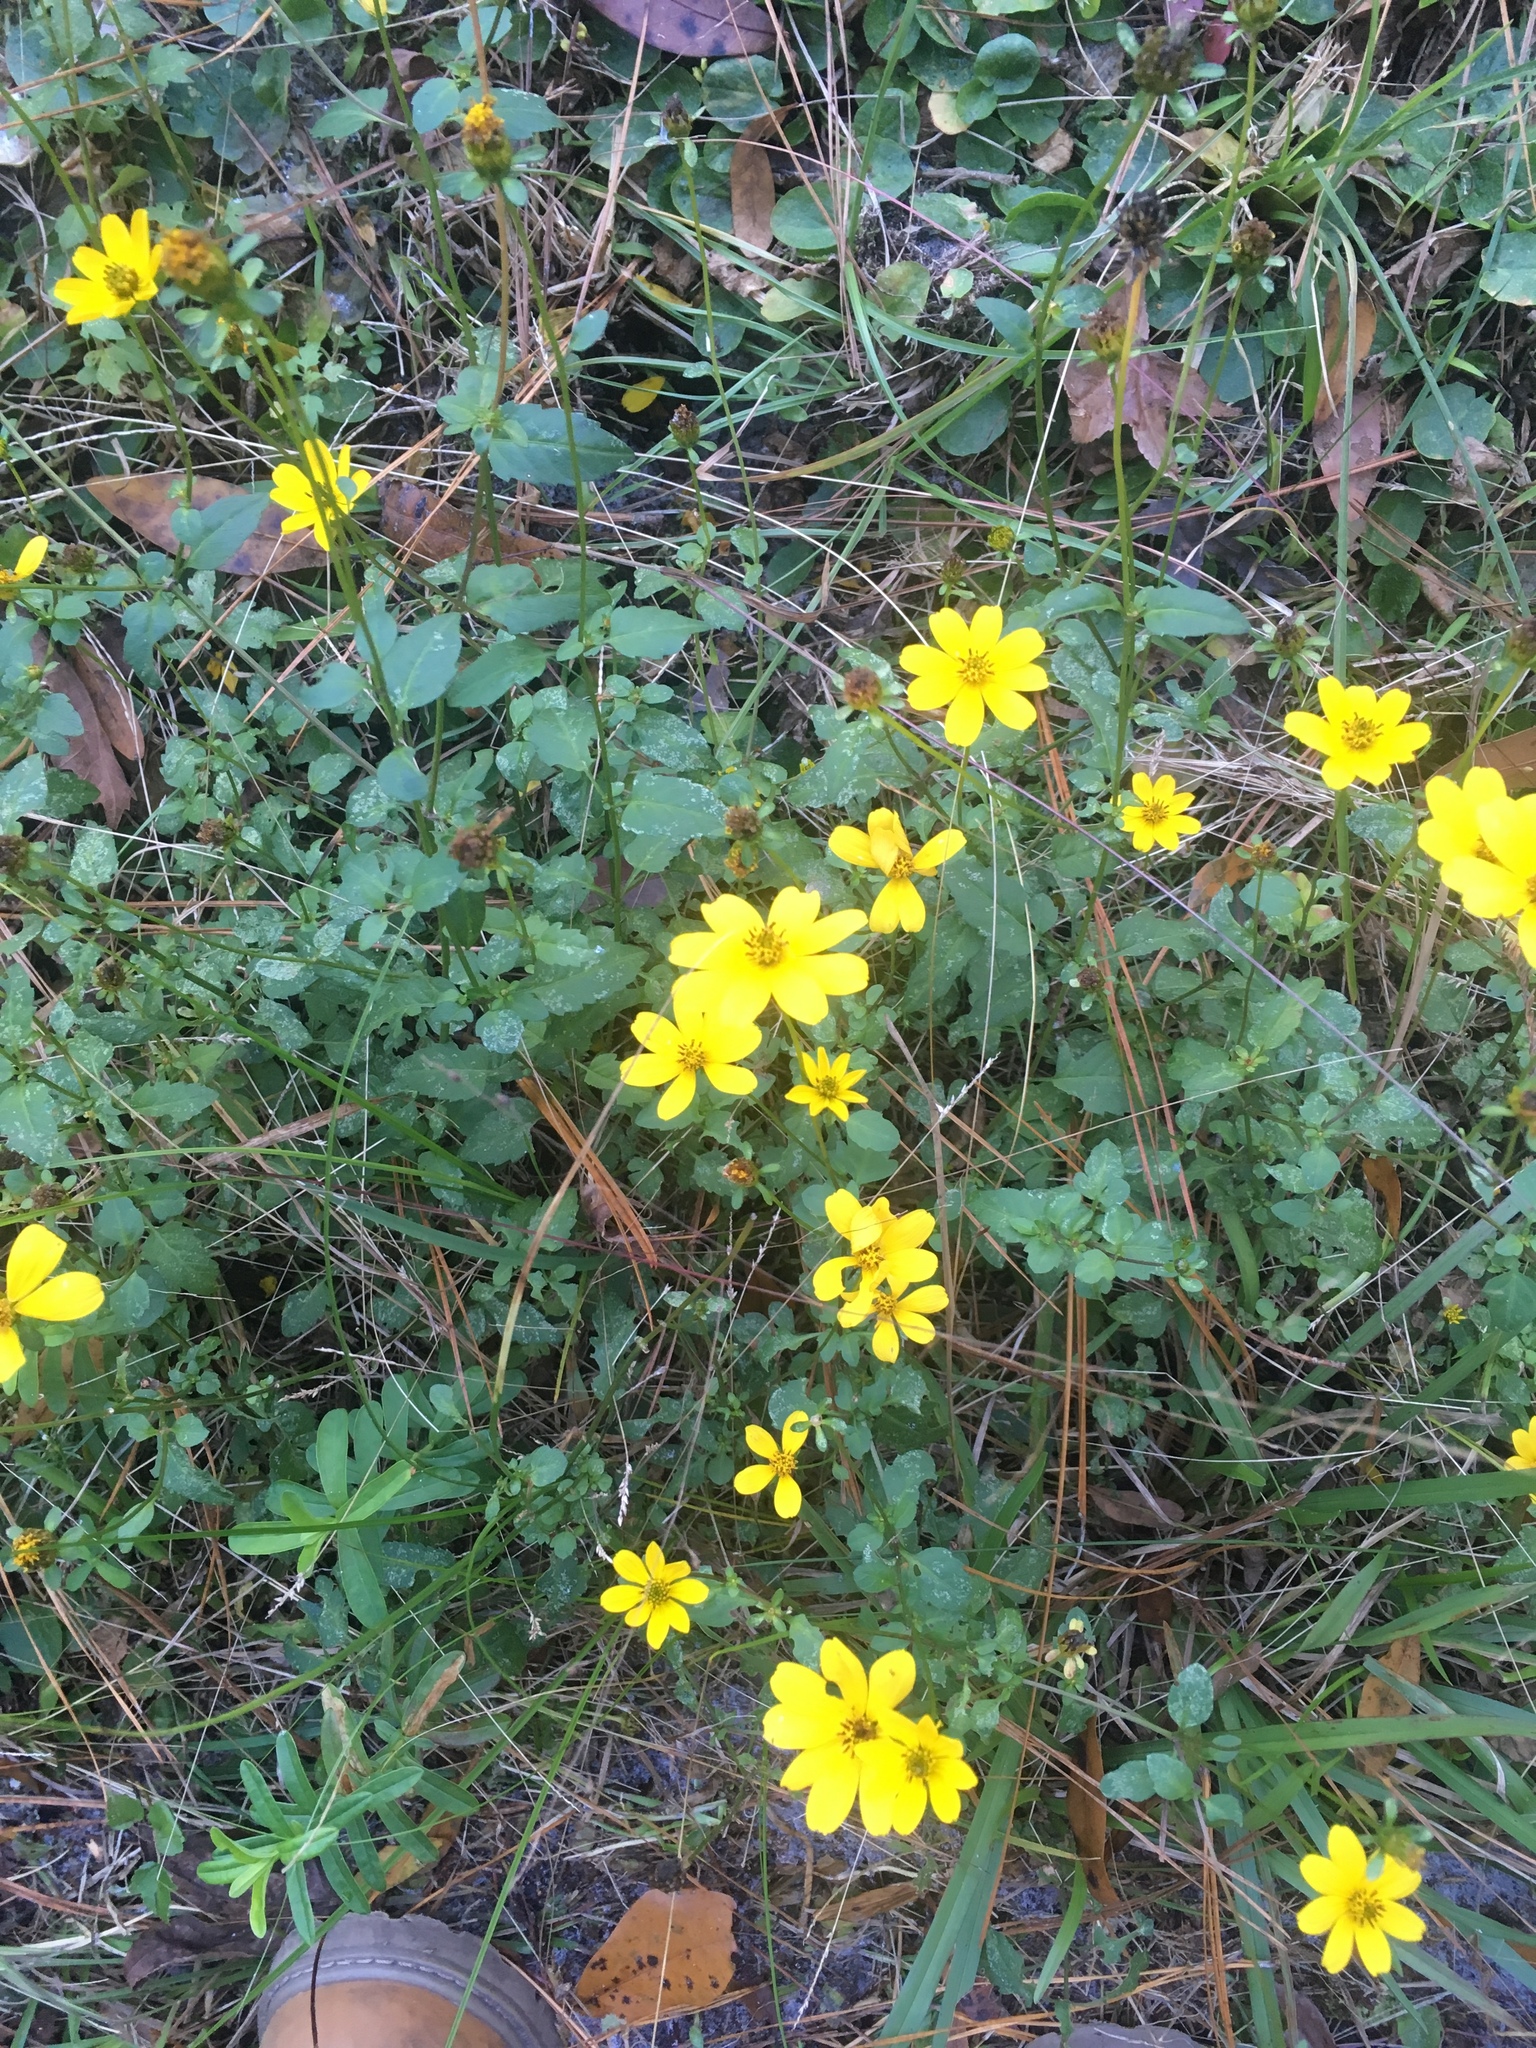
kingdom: Plantae
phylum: Tracheophyta
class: Magnoliopsida
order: Asterales
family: Asteraceae
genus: Bidens
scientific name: Bidens mitis
